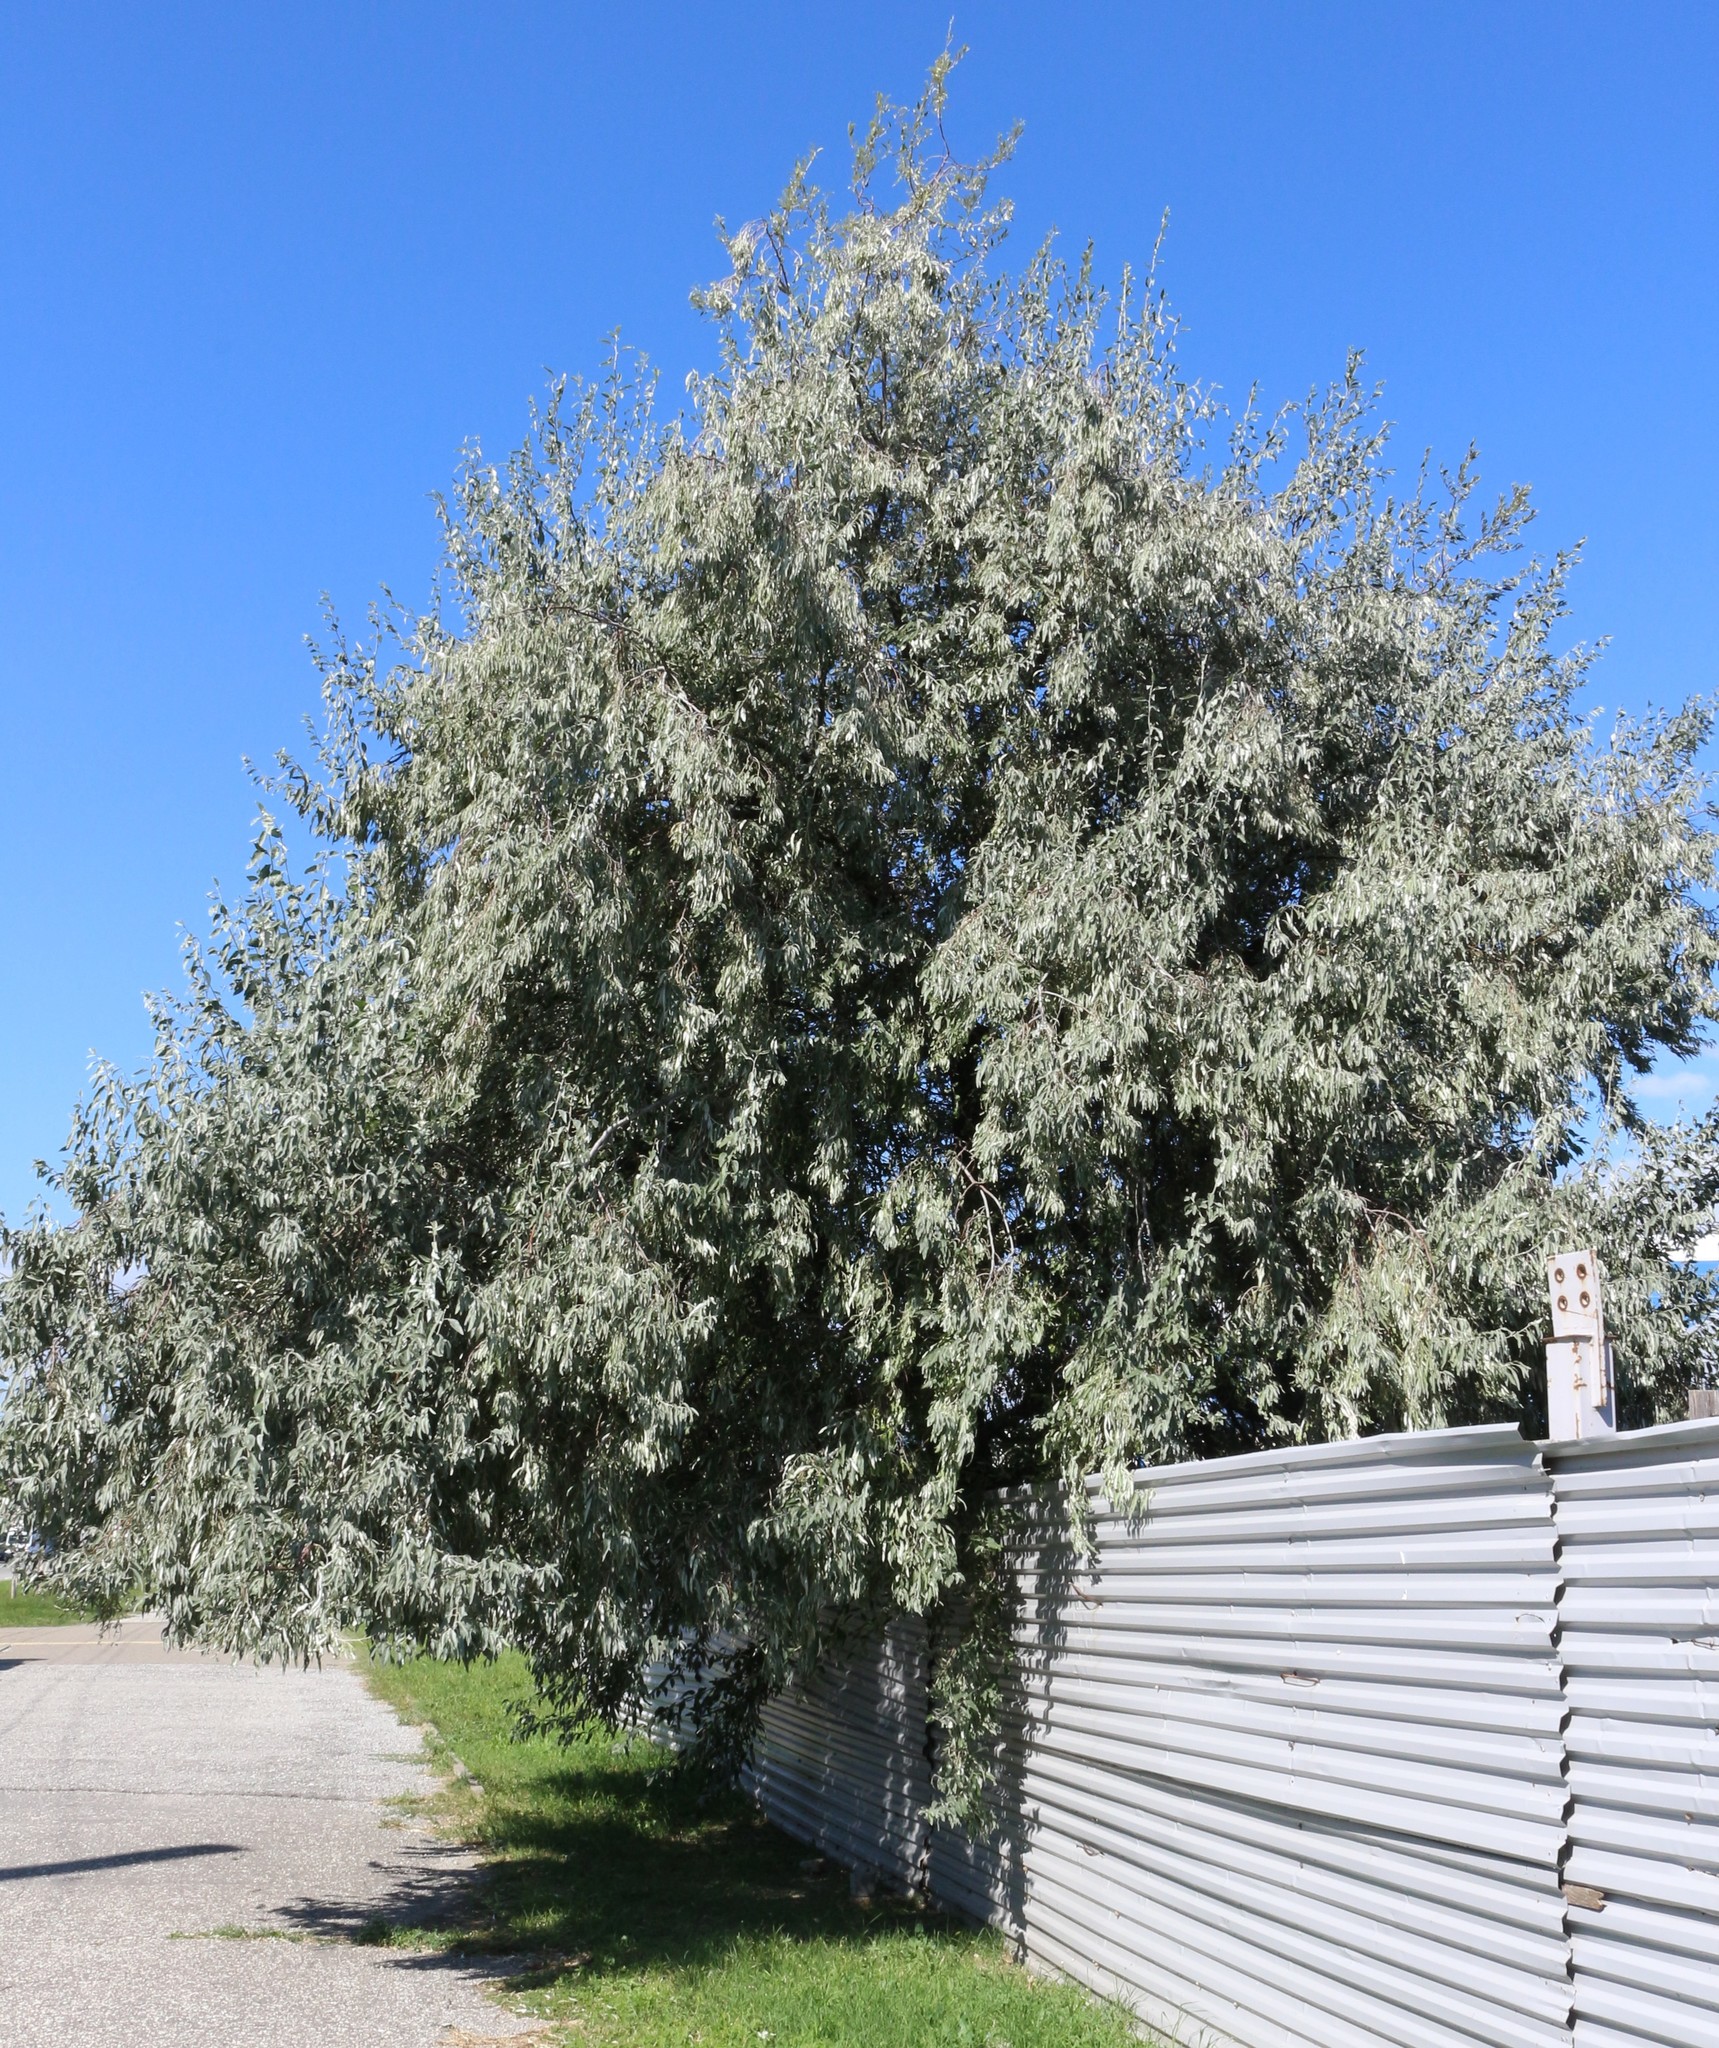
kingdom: Plantae
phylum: Tracheophyta
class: Magnoliopsida
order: Rosales
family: Elaeagnaceae
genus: Elaeagnus
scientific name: Elaeagnus angustifolia
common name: Russian olive
